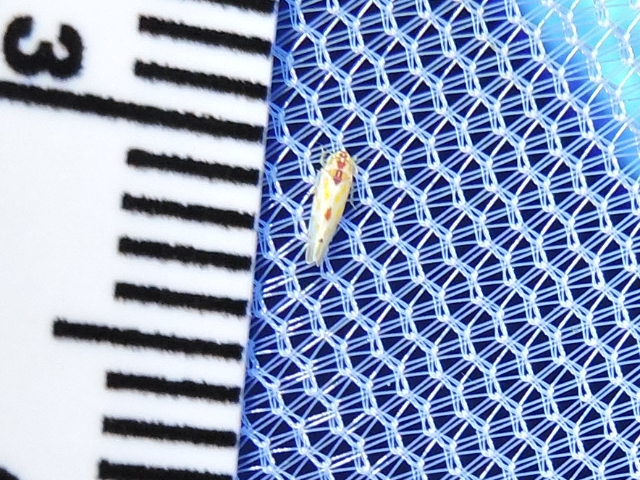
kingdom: Animalia
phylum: Arthropoda
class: Insecta
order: Hemiptera
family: Cicadellidae
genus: Eratoneura
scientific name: Eratoneura externa
